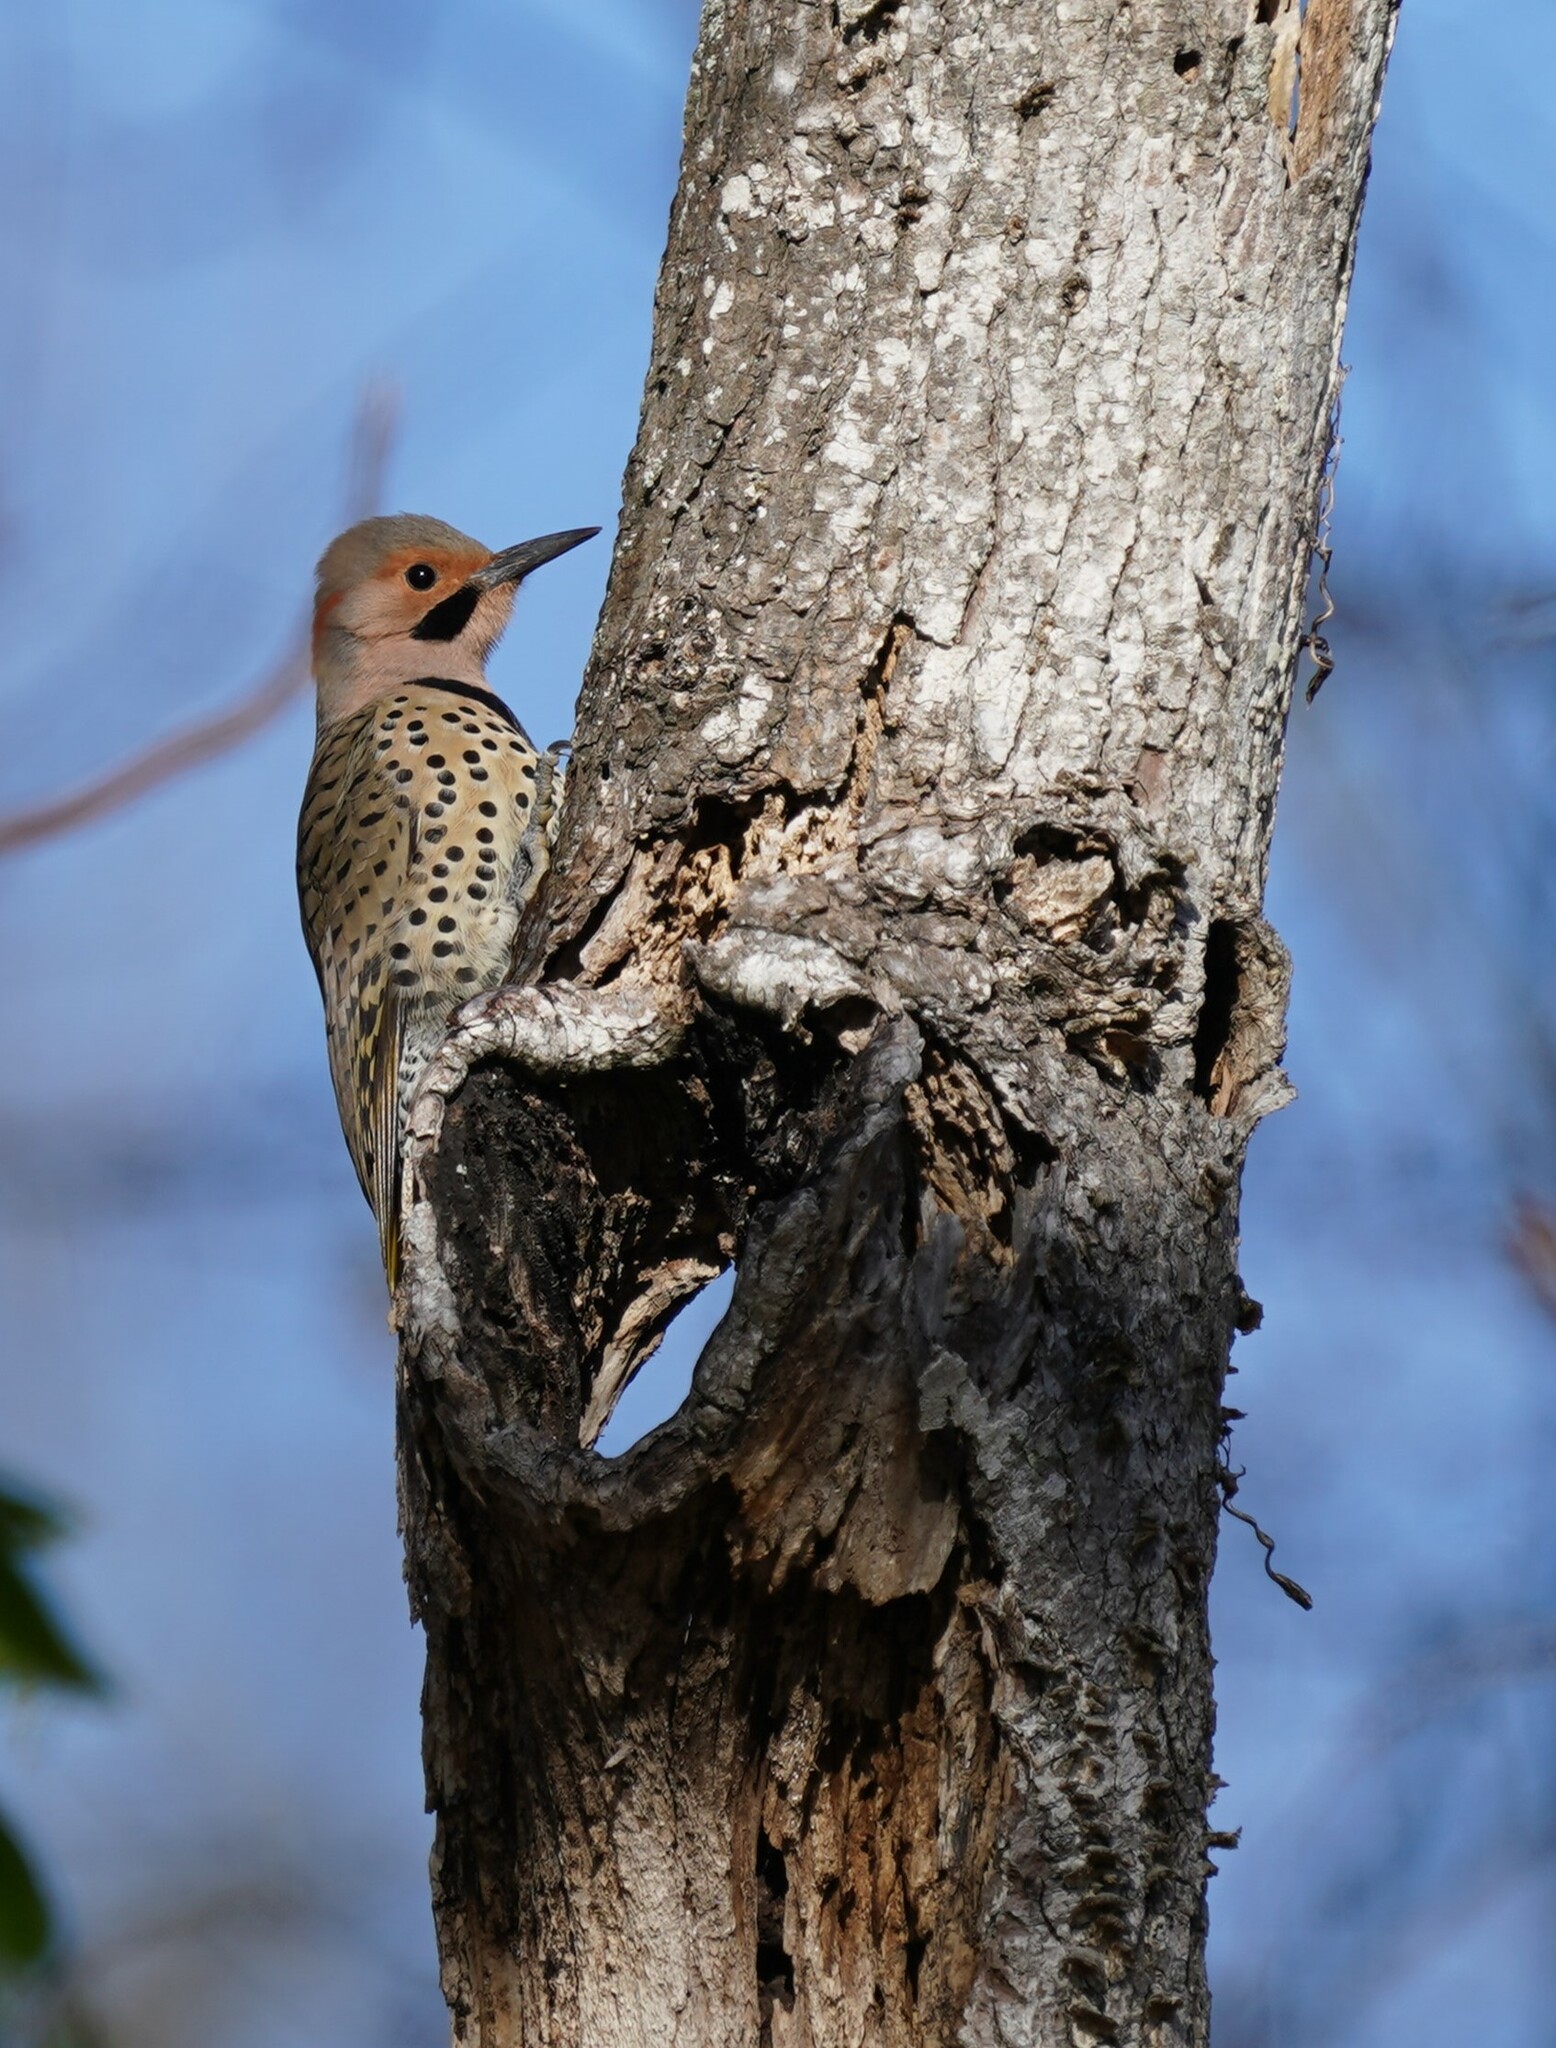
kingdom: Animalia
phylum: Chordata
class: Aves
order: Piciformes
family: Picidae
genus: Colaptes
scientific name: Colaptes auratus
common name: Northern flicker
